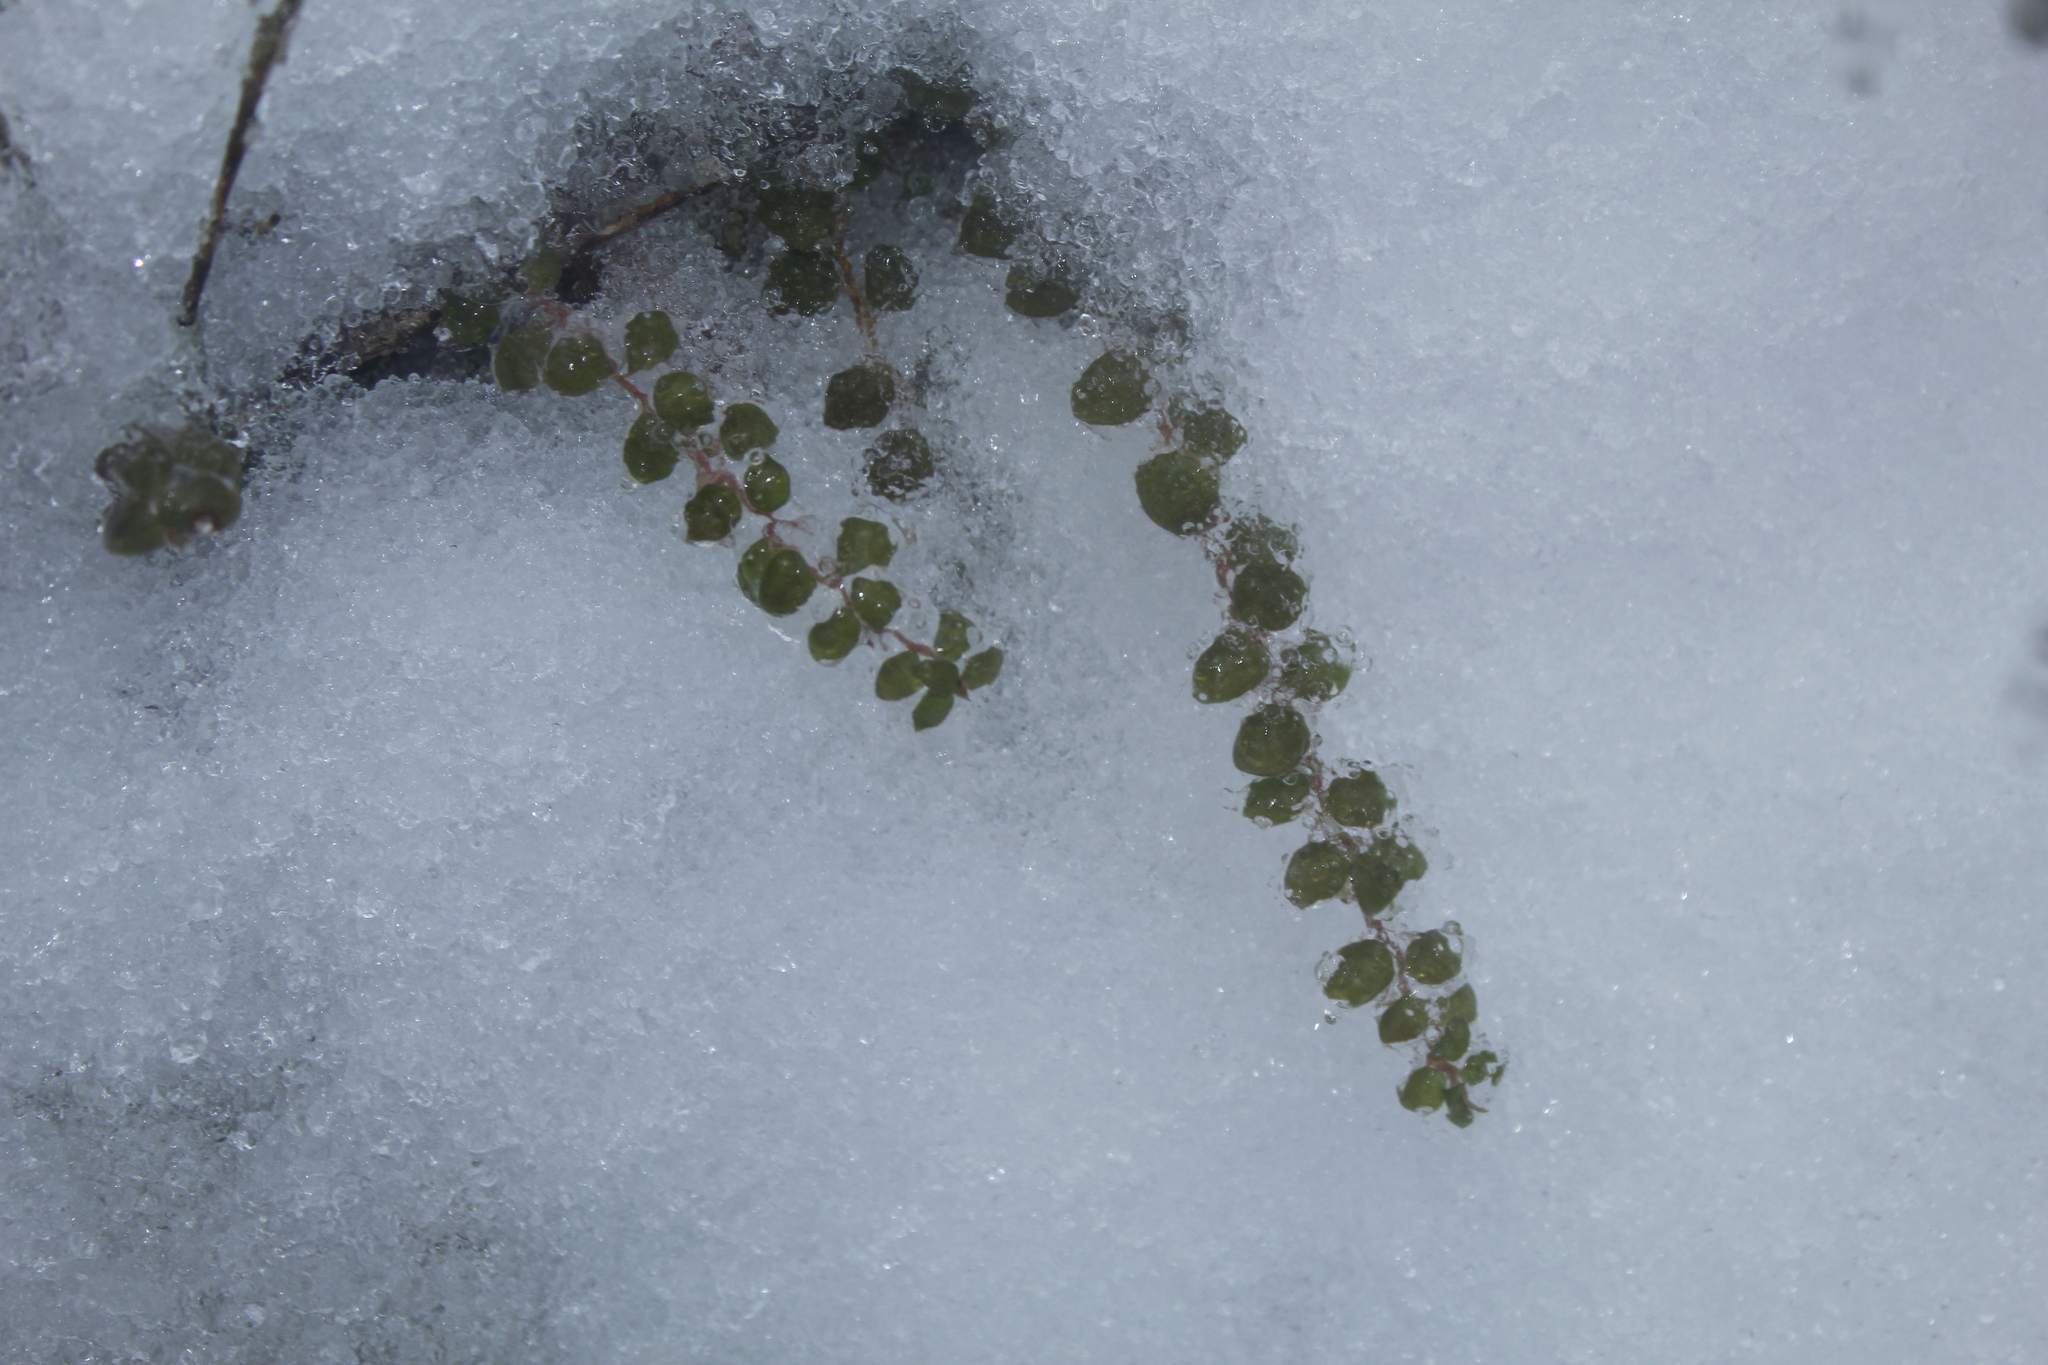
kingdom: Plantae
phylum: Tracheophyta
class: Magnoliopsida
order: Ericales
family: Ericaceae
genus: Gaultheria
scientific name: Gaultheria hispidula
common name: Cancer wintergreen
